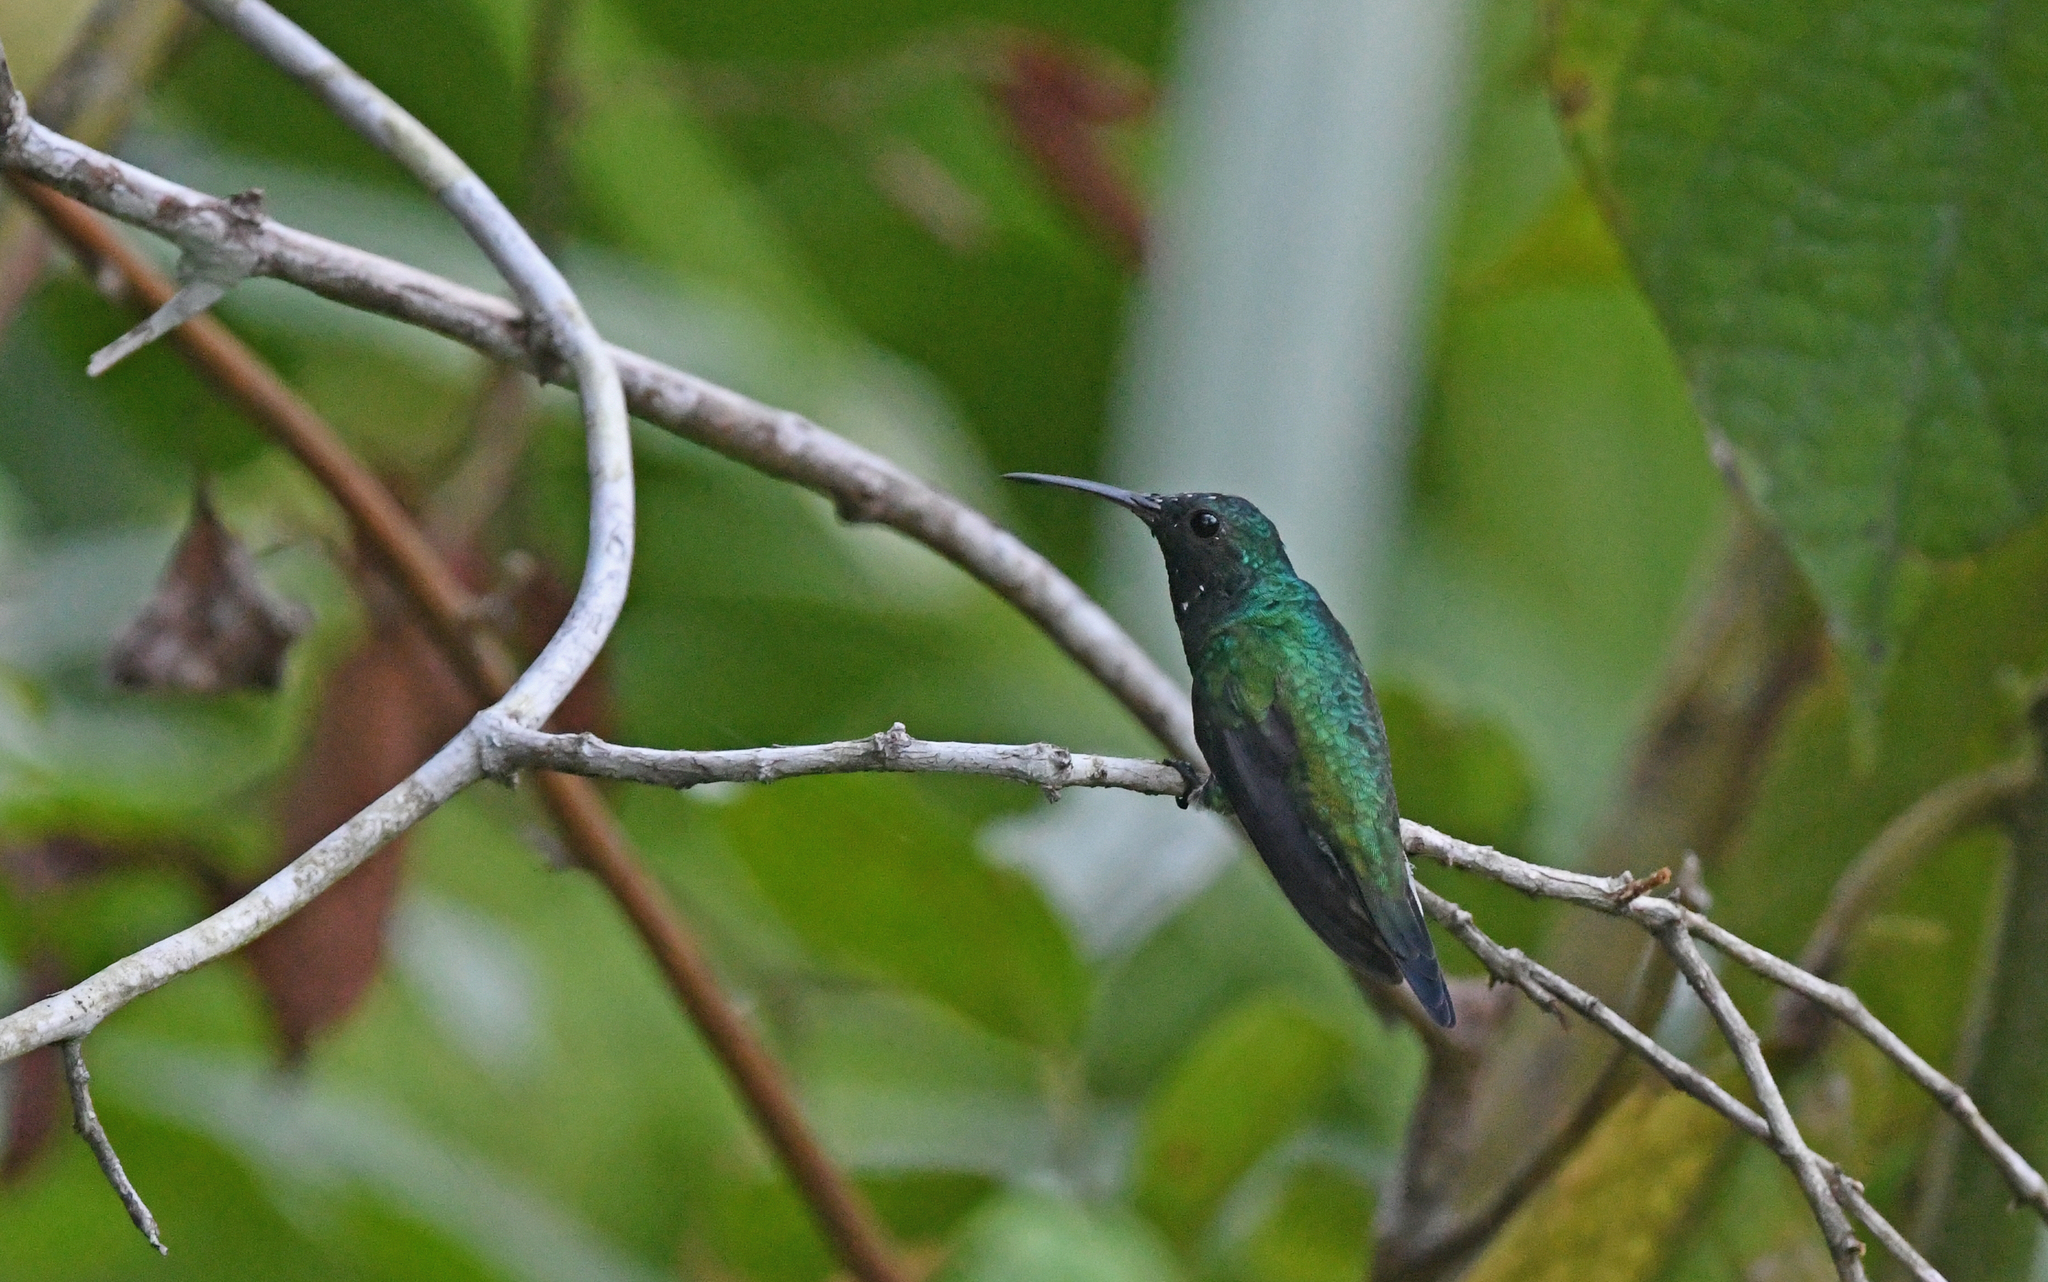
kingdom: Animalia
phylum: Chordata
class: Aves
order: Apodiformes
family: Trochilidae
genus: Saucerottia
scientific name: Saucerottia saucerottei
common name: Steely-vented hummingbird
